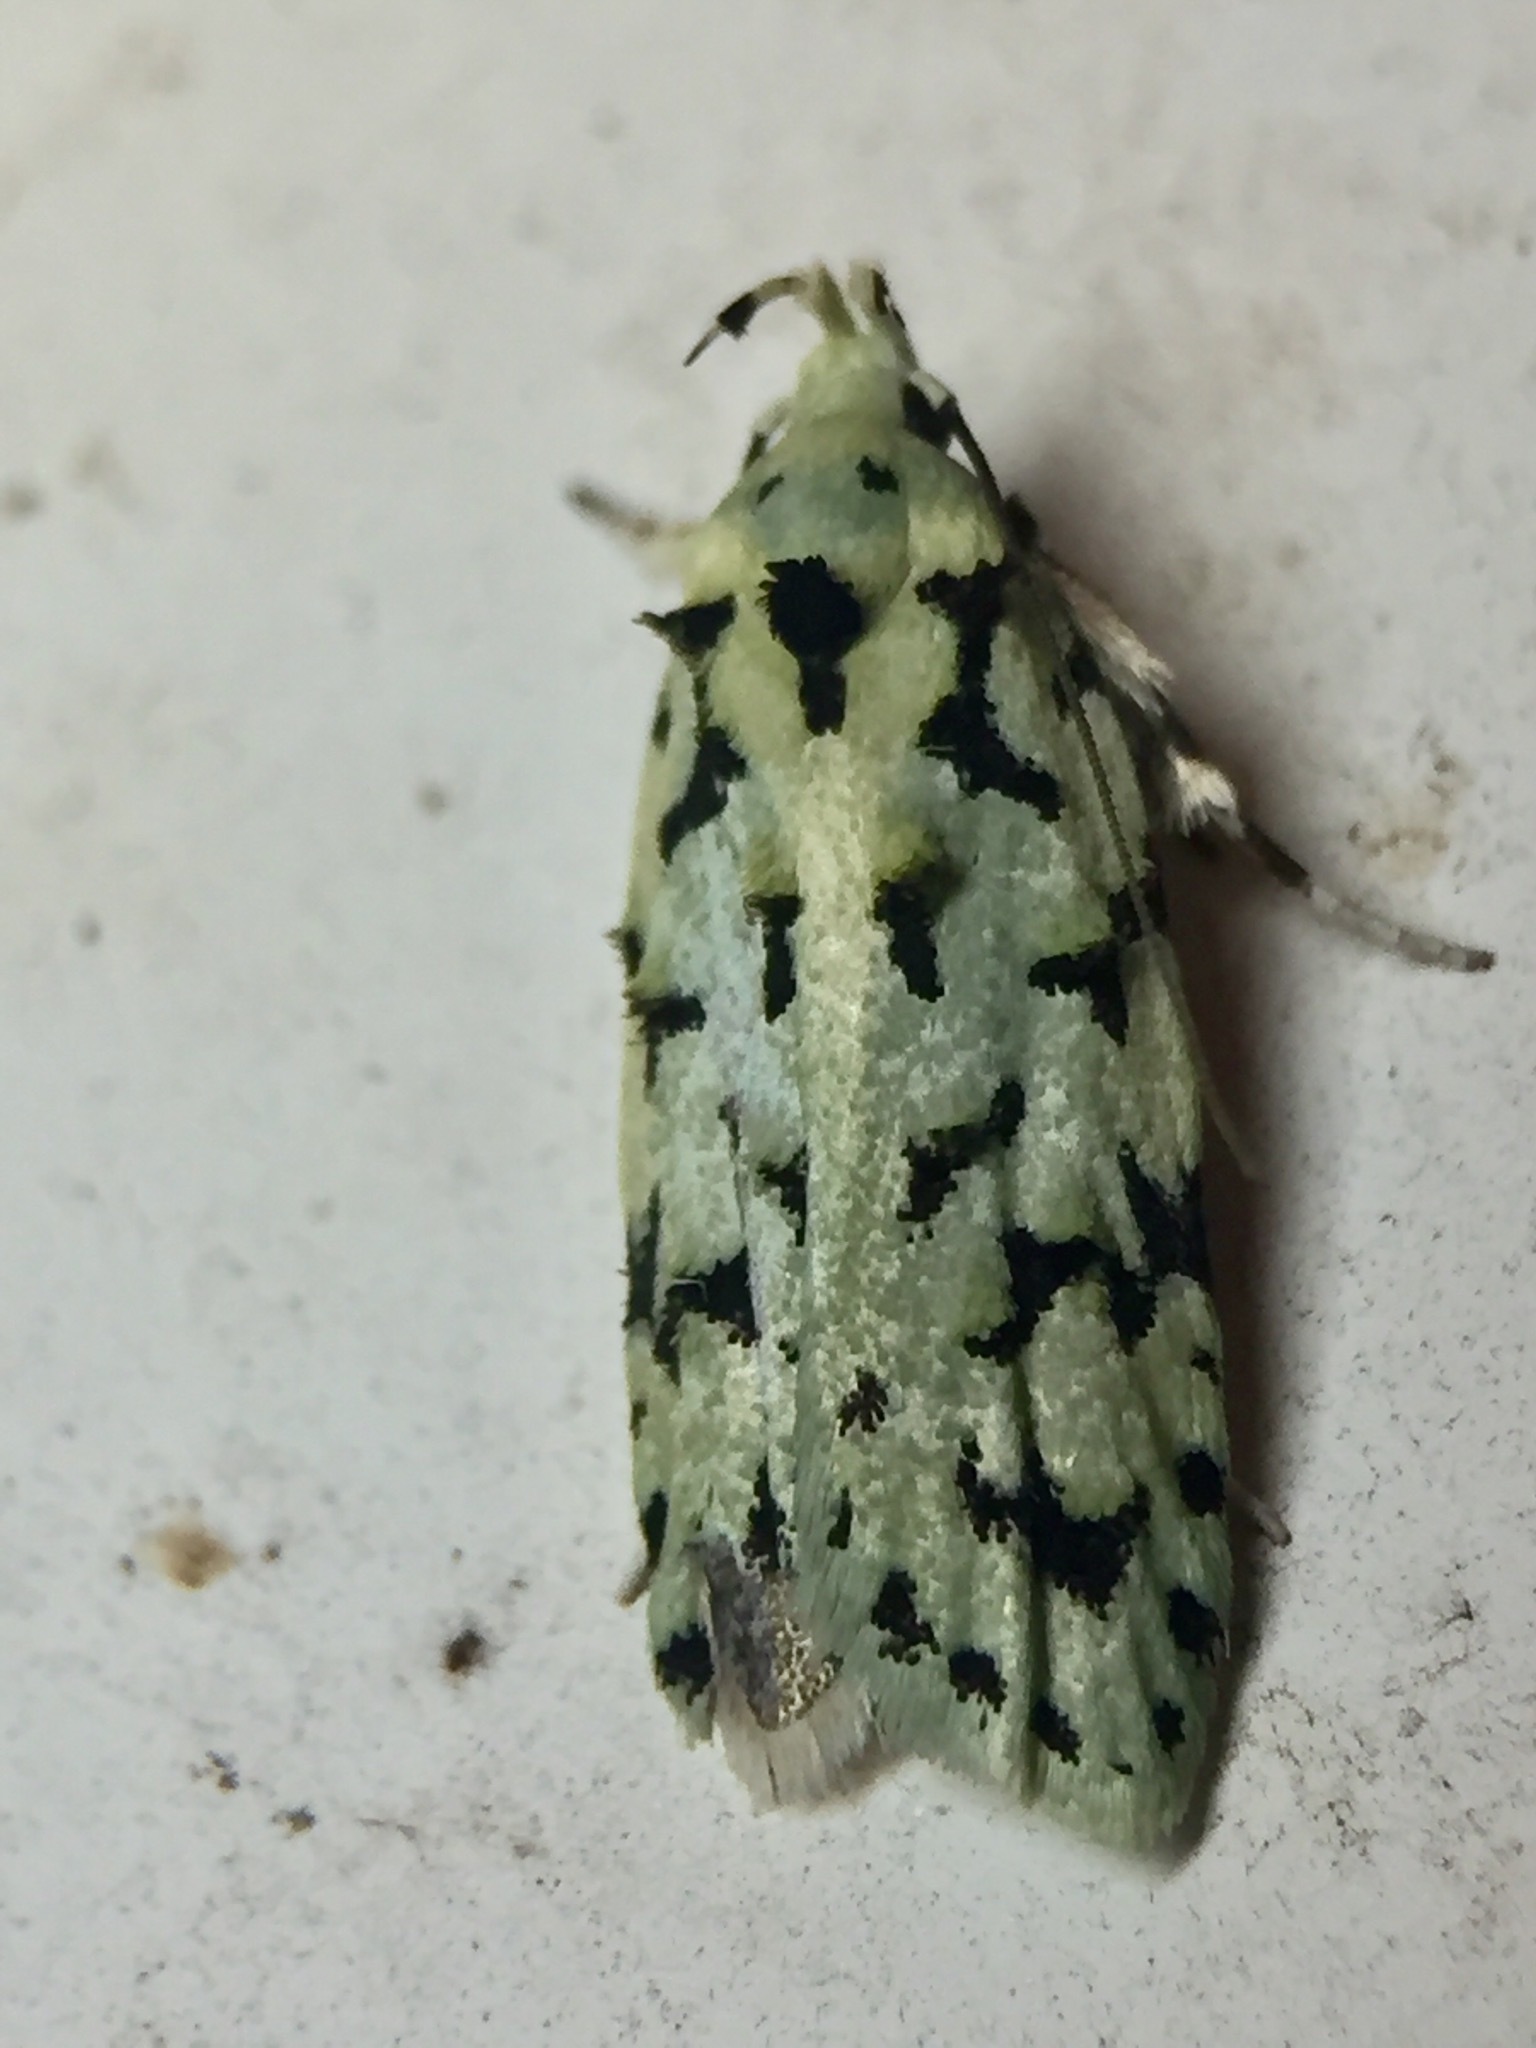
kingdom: Animalia
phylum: Arthropoda
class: Insecta
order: Lepidoptera
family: Oecophoridae
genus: Izatha
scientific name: Izatha peroneanella
